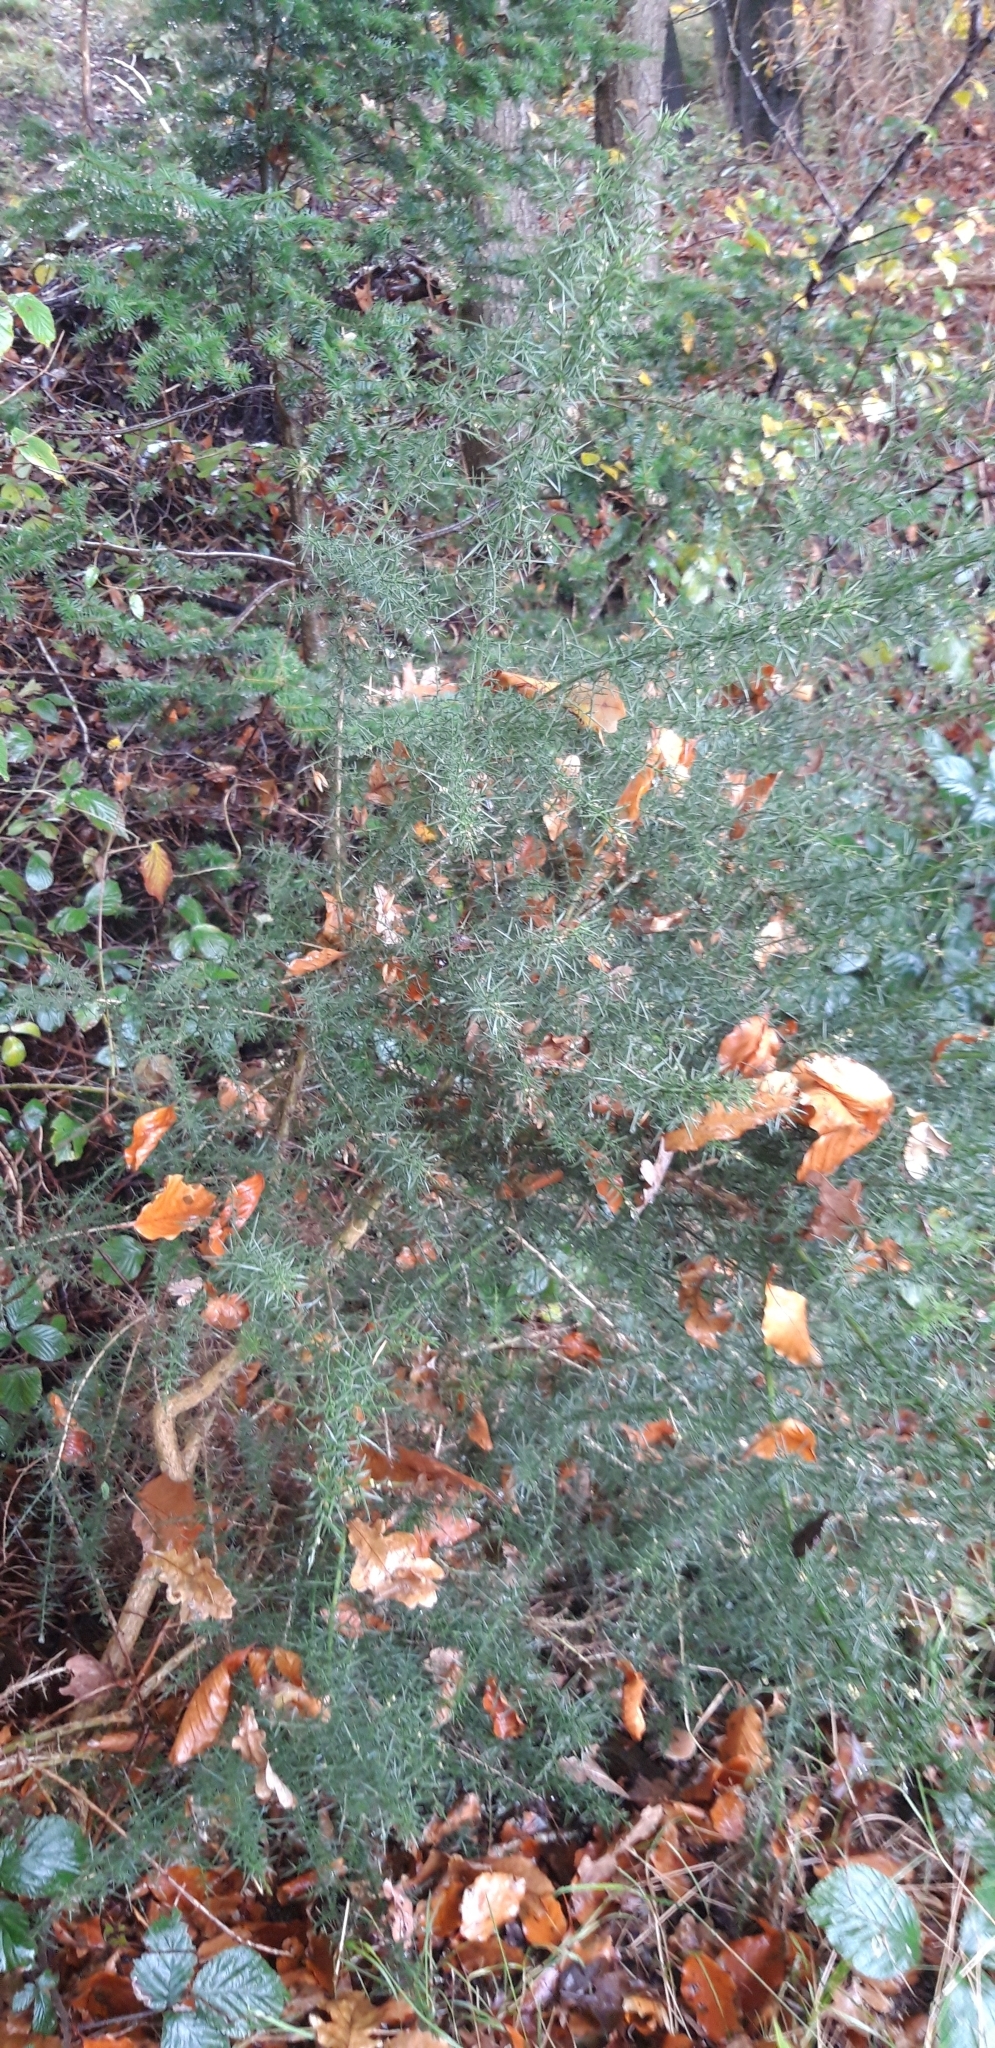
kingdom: Plantae
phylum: Tracheophyta
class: Magnoliopsida
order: Fabales
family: Fabaceae
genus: Ulex
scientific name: Ulex europaeus
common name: Common gorse
